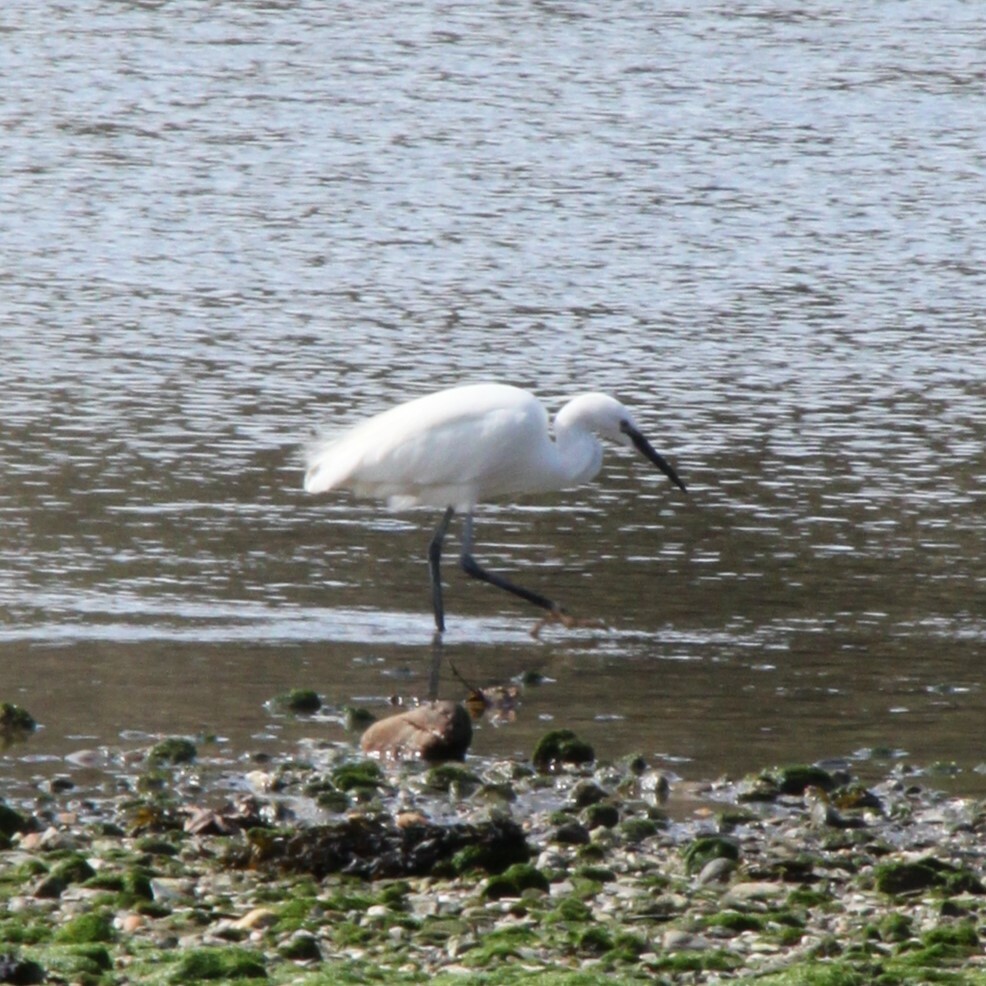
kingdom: Animalia
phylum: Chordata
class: Aves
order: Pelecaniformes
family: Ardeidae
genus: Egretta
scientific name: Egretta garzetta
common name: Little egret
